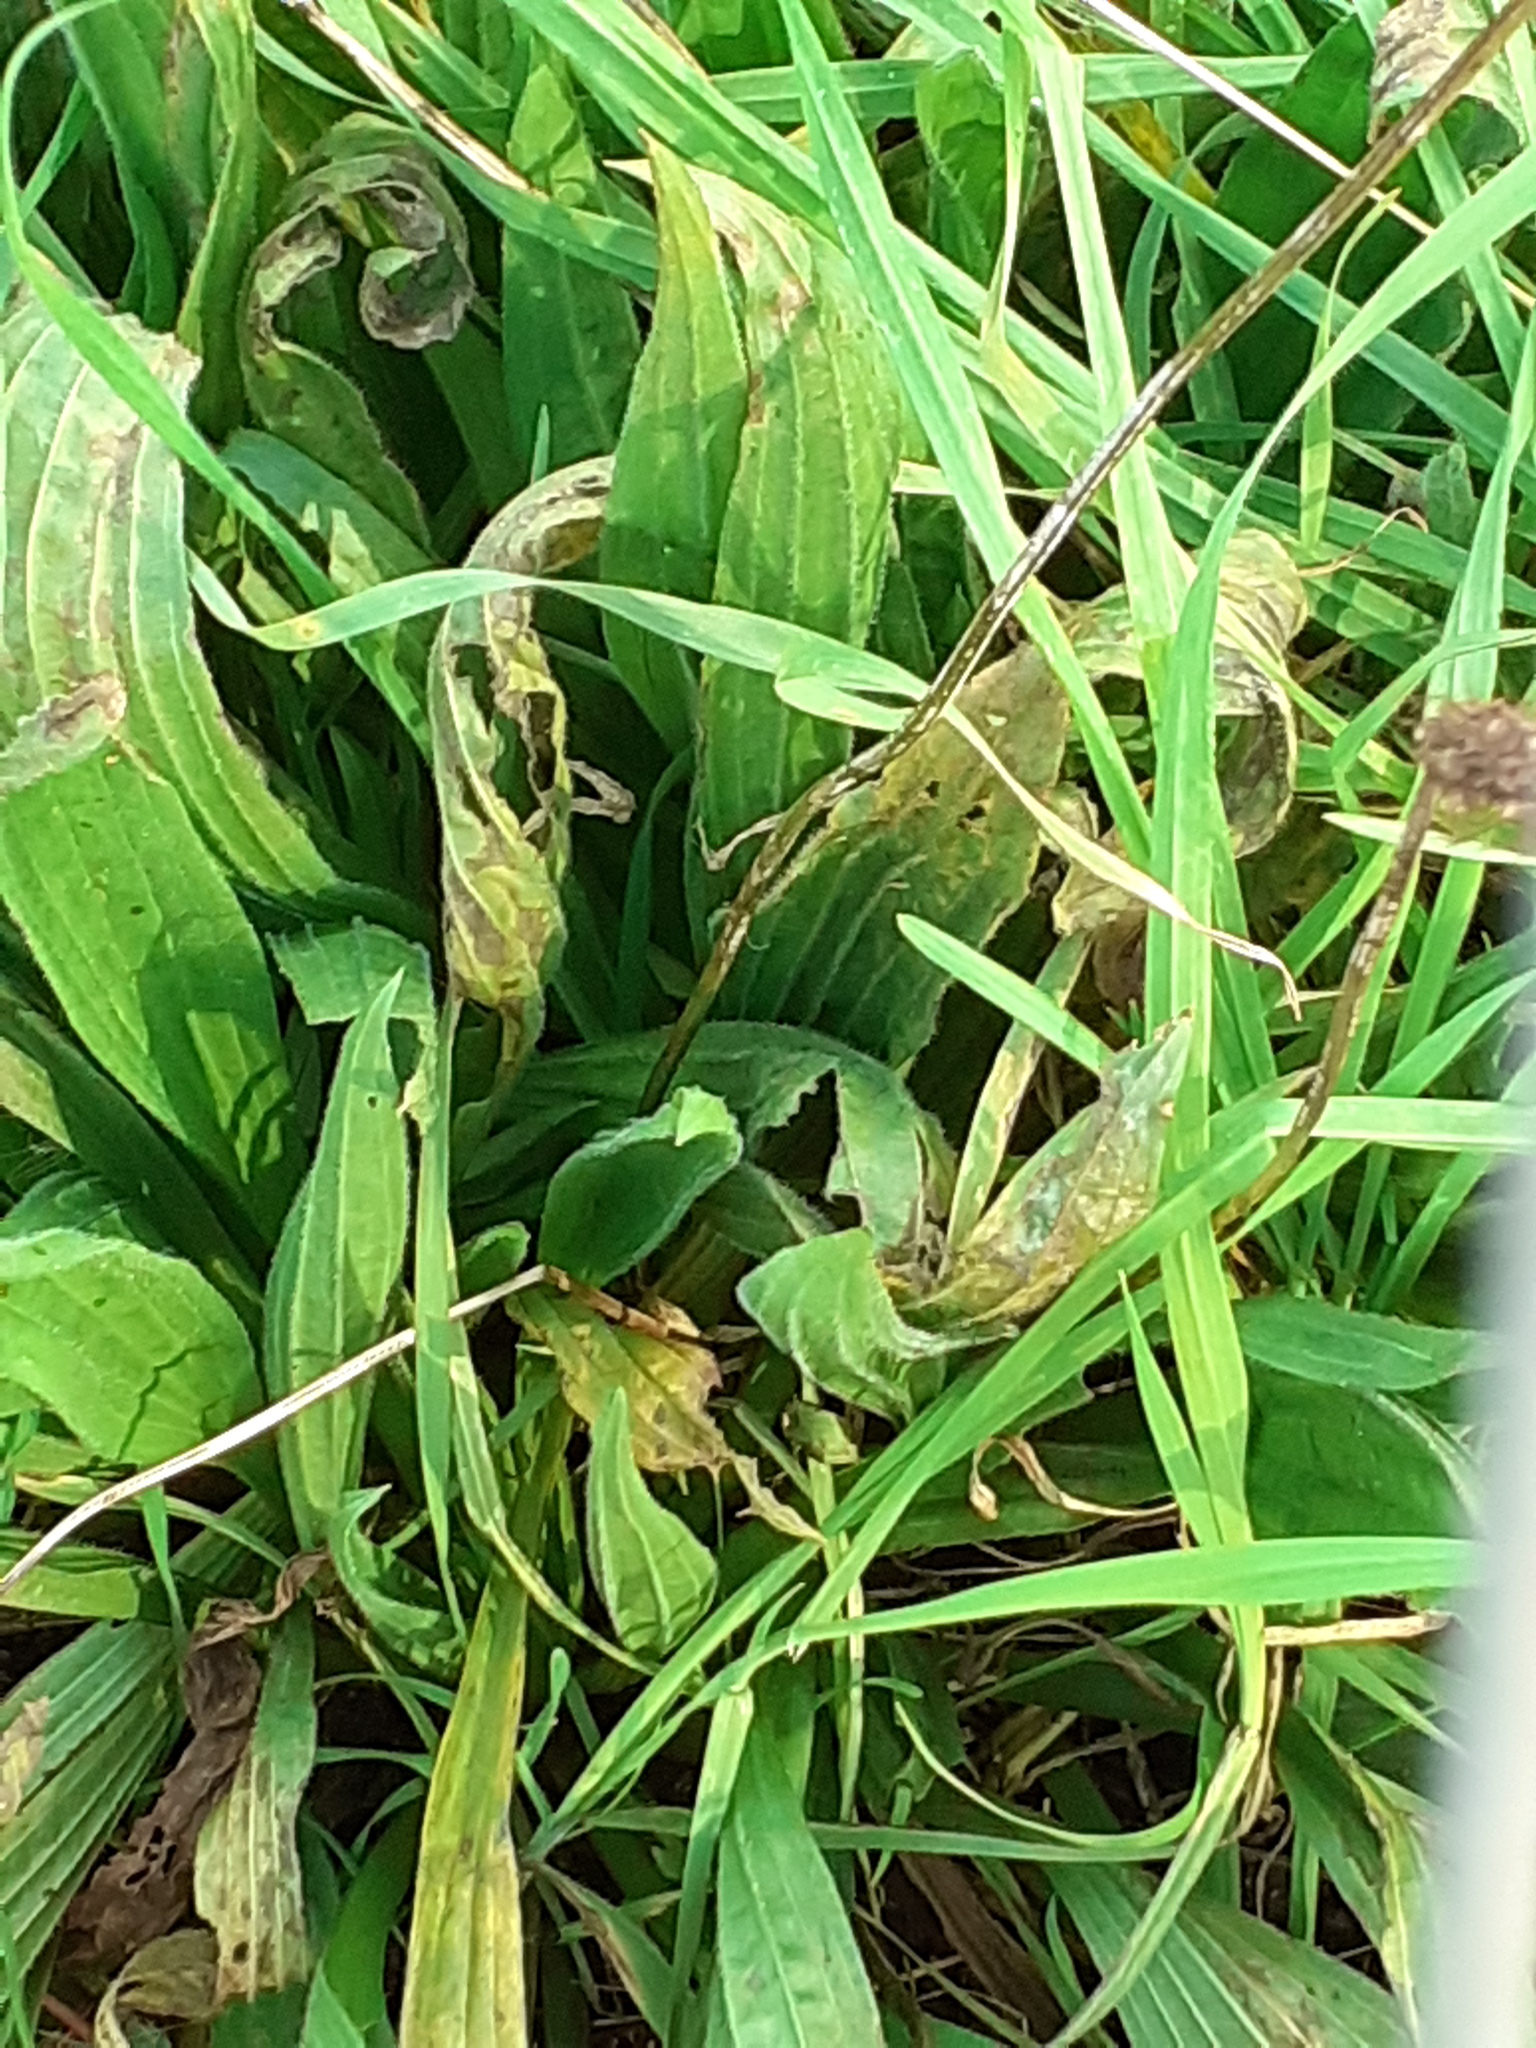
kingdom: Plantae
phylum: Tracheophyta
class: Magnoliopsida
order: Lamiales
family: Plantaginaceae
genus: Plantago
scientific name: Plantago lanceolata
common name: Ribwort plantain
